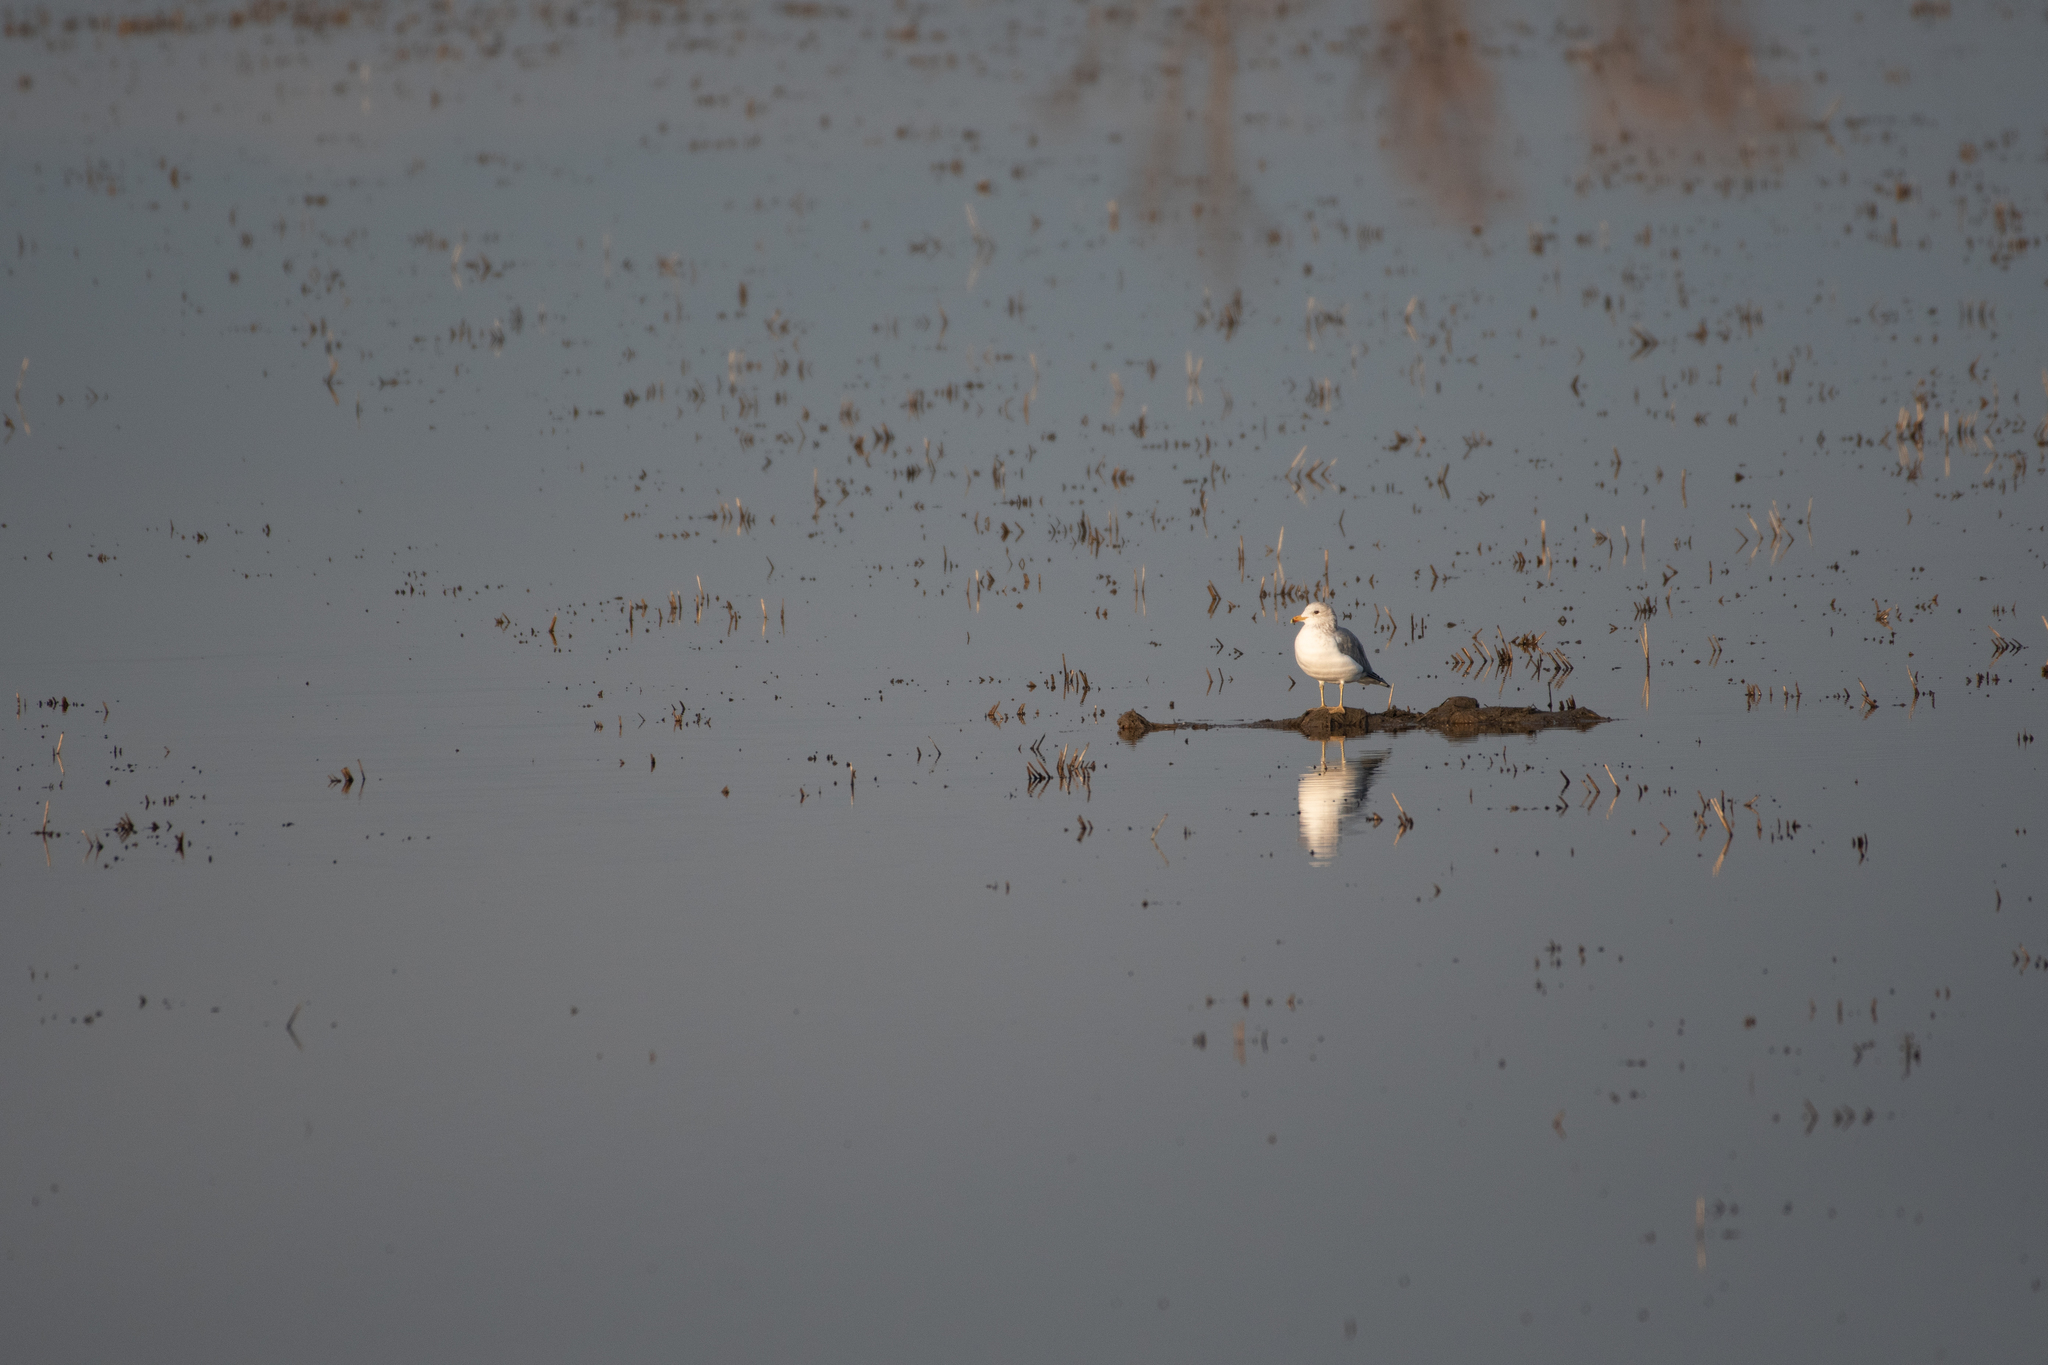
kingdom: Animalia
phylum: Chordata
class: Aves
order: Charadriiformes
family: Laridae
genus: Larus
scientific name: Larus californicus
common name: California gull
